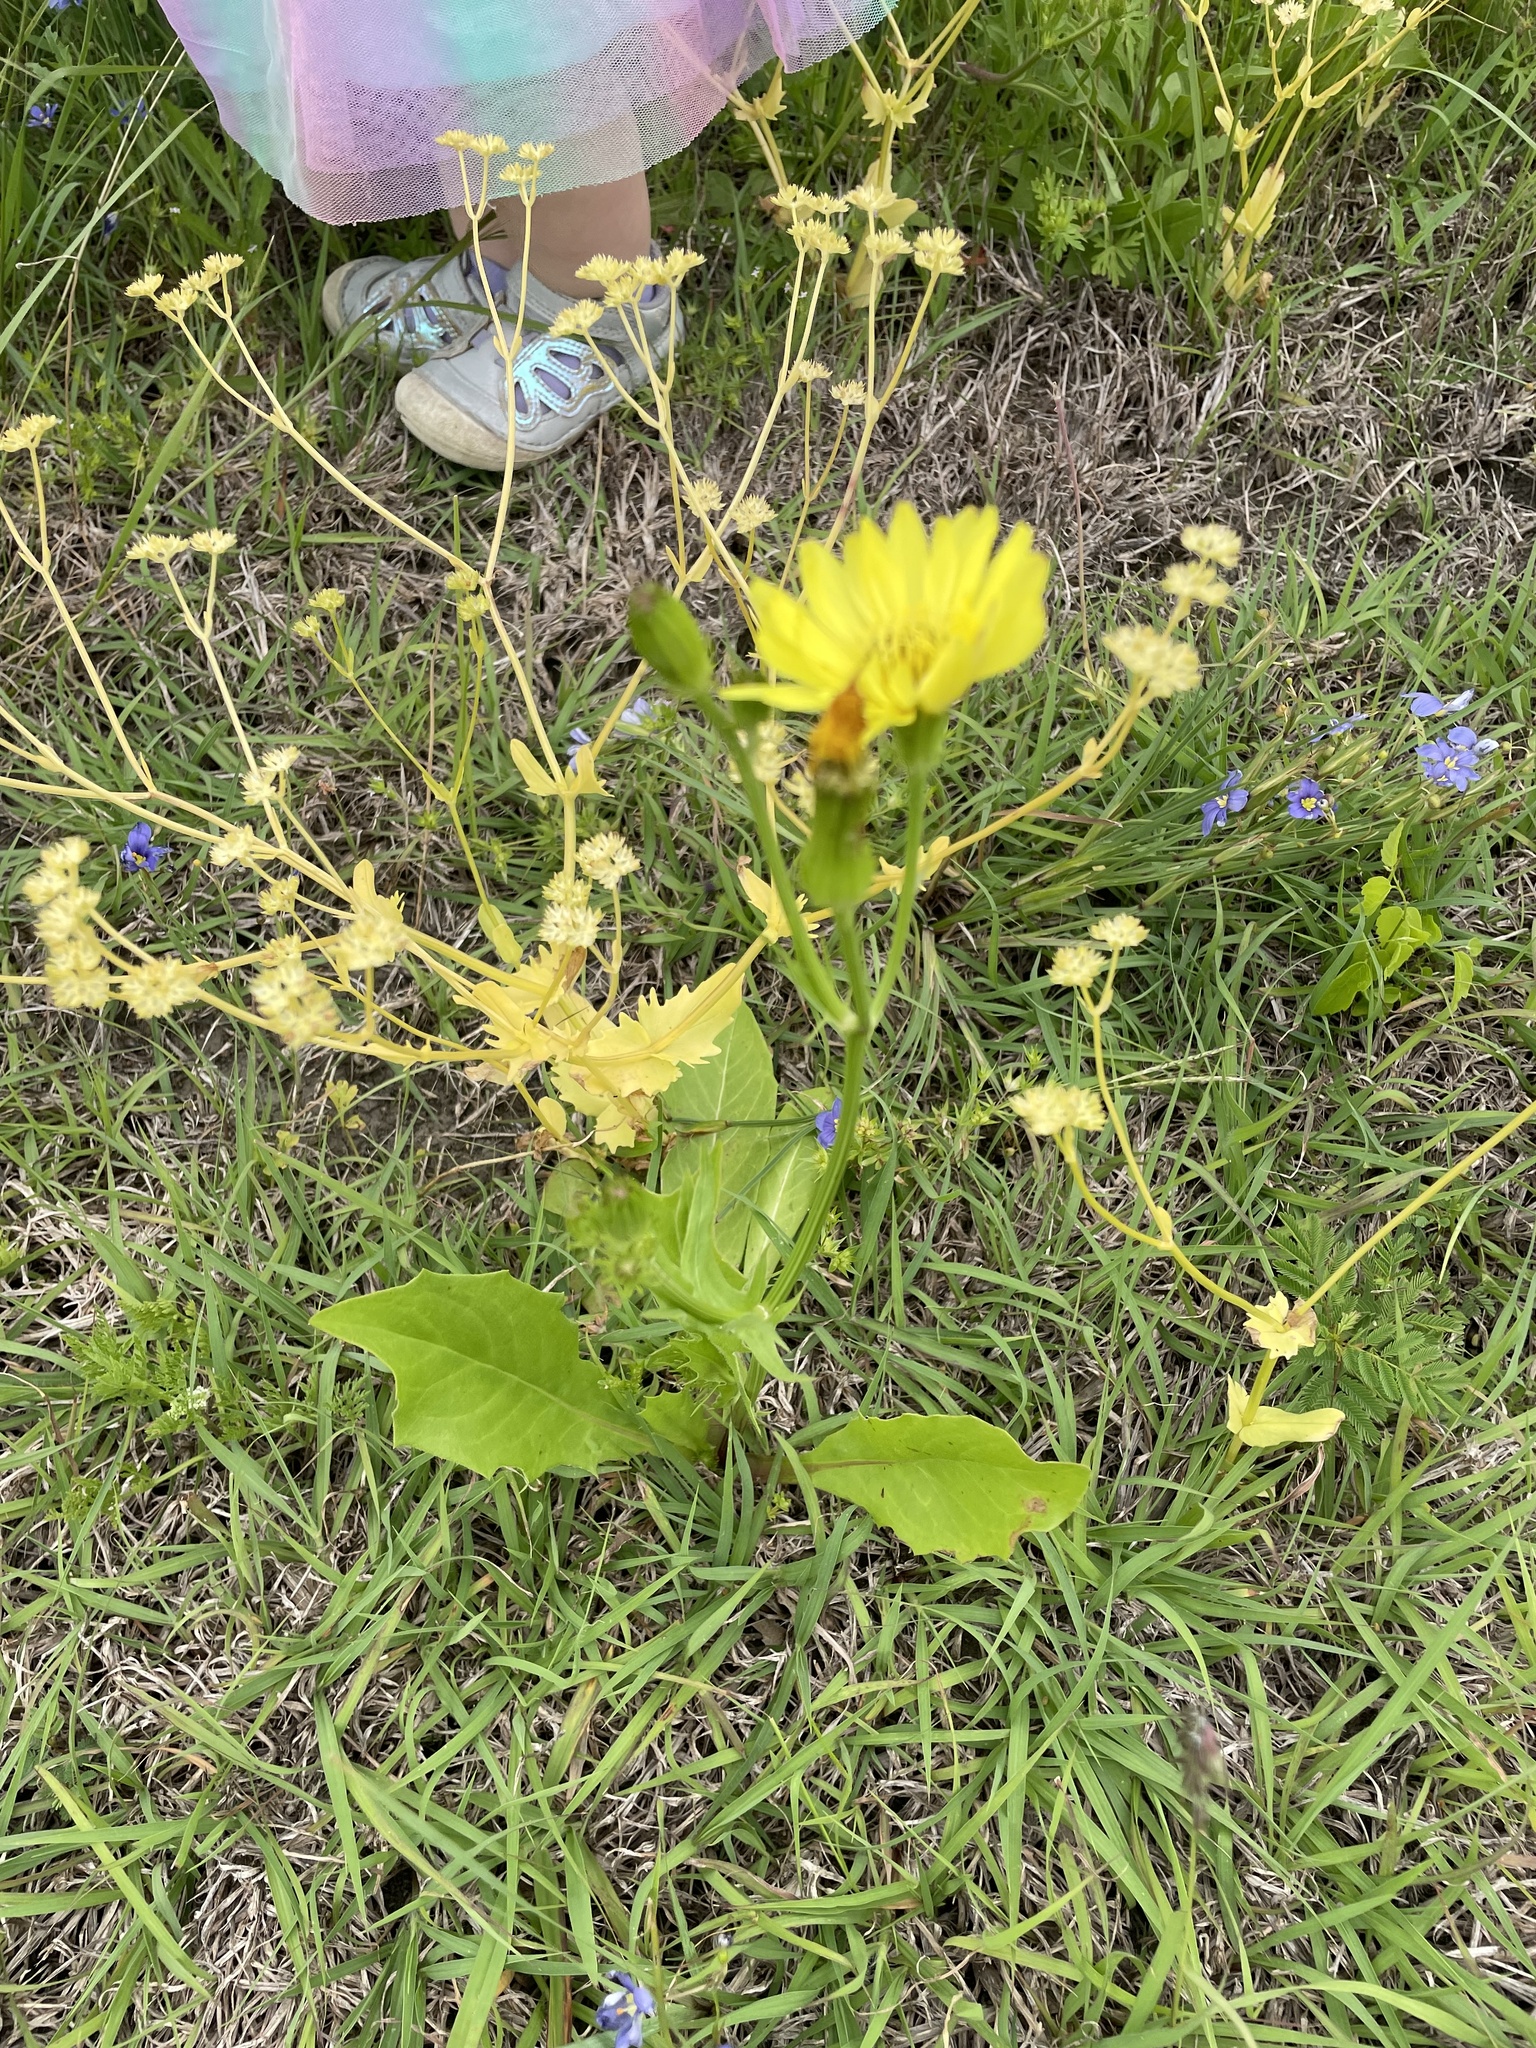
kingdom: Plantae
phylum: Tracheophyta
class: Magnoliopsida
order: Asterales
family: Asteraceae
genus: Pyrrhopappus
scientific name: Pyrrhopappus pauciflorus
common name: Texas false dandelion
